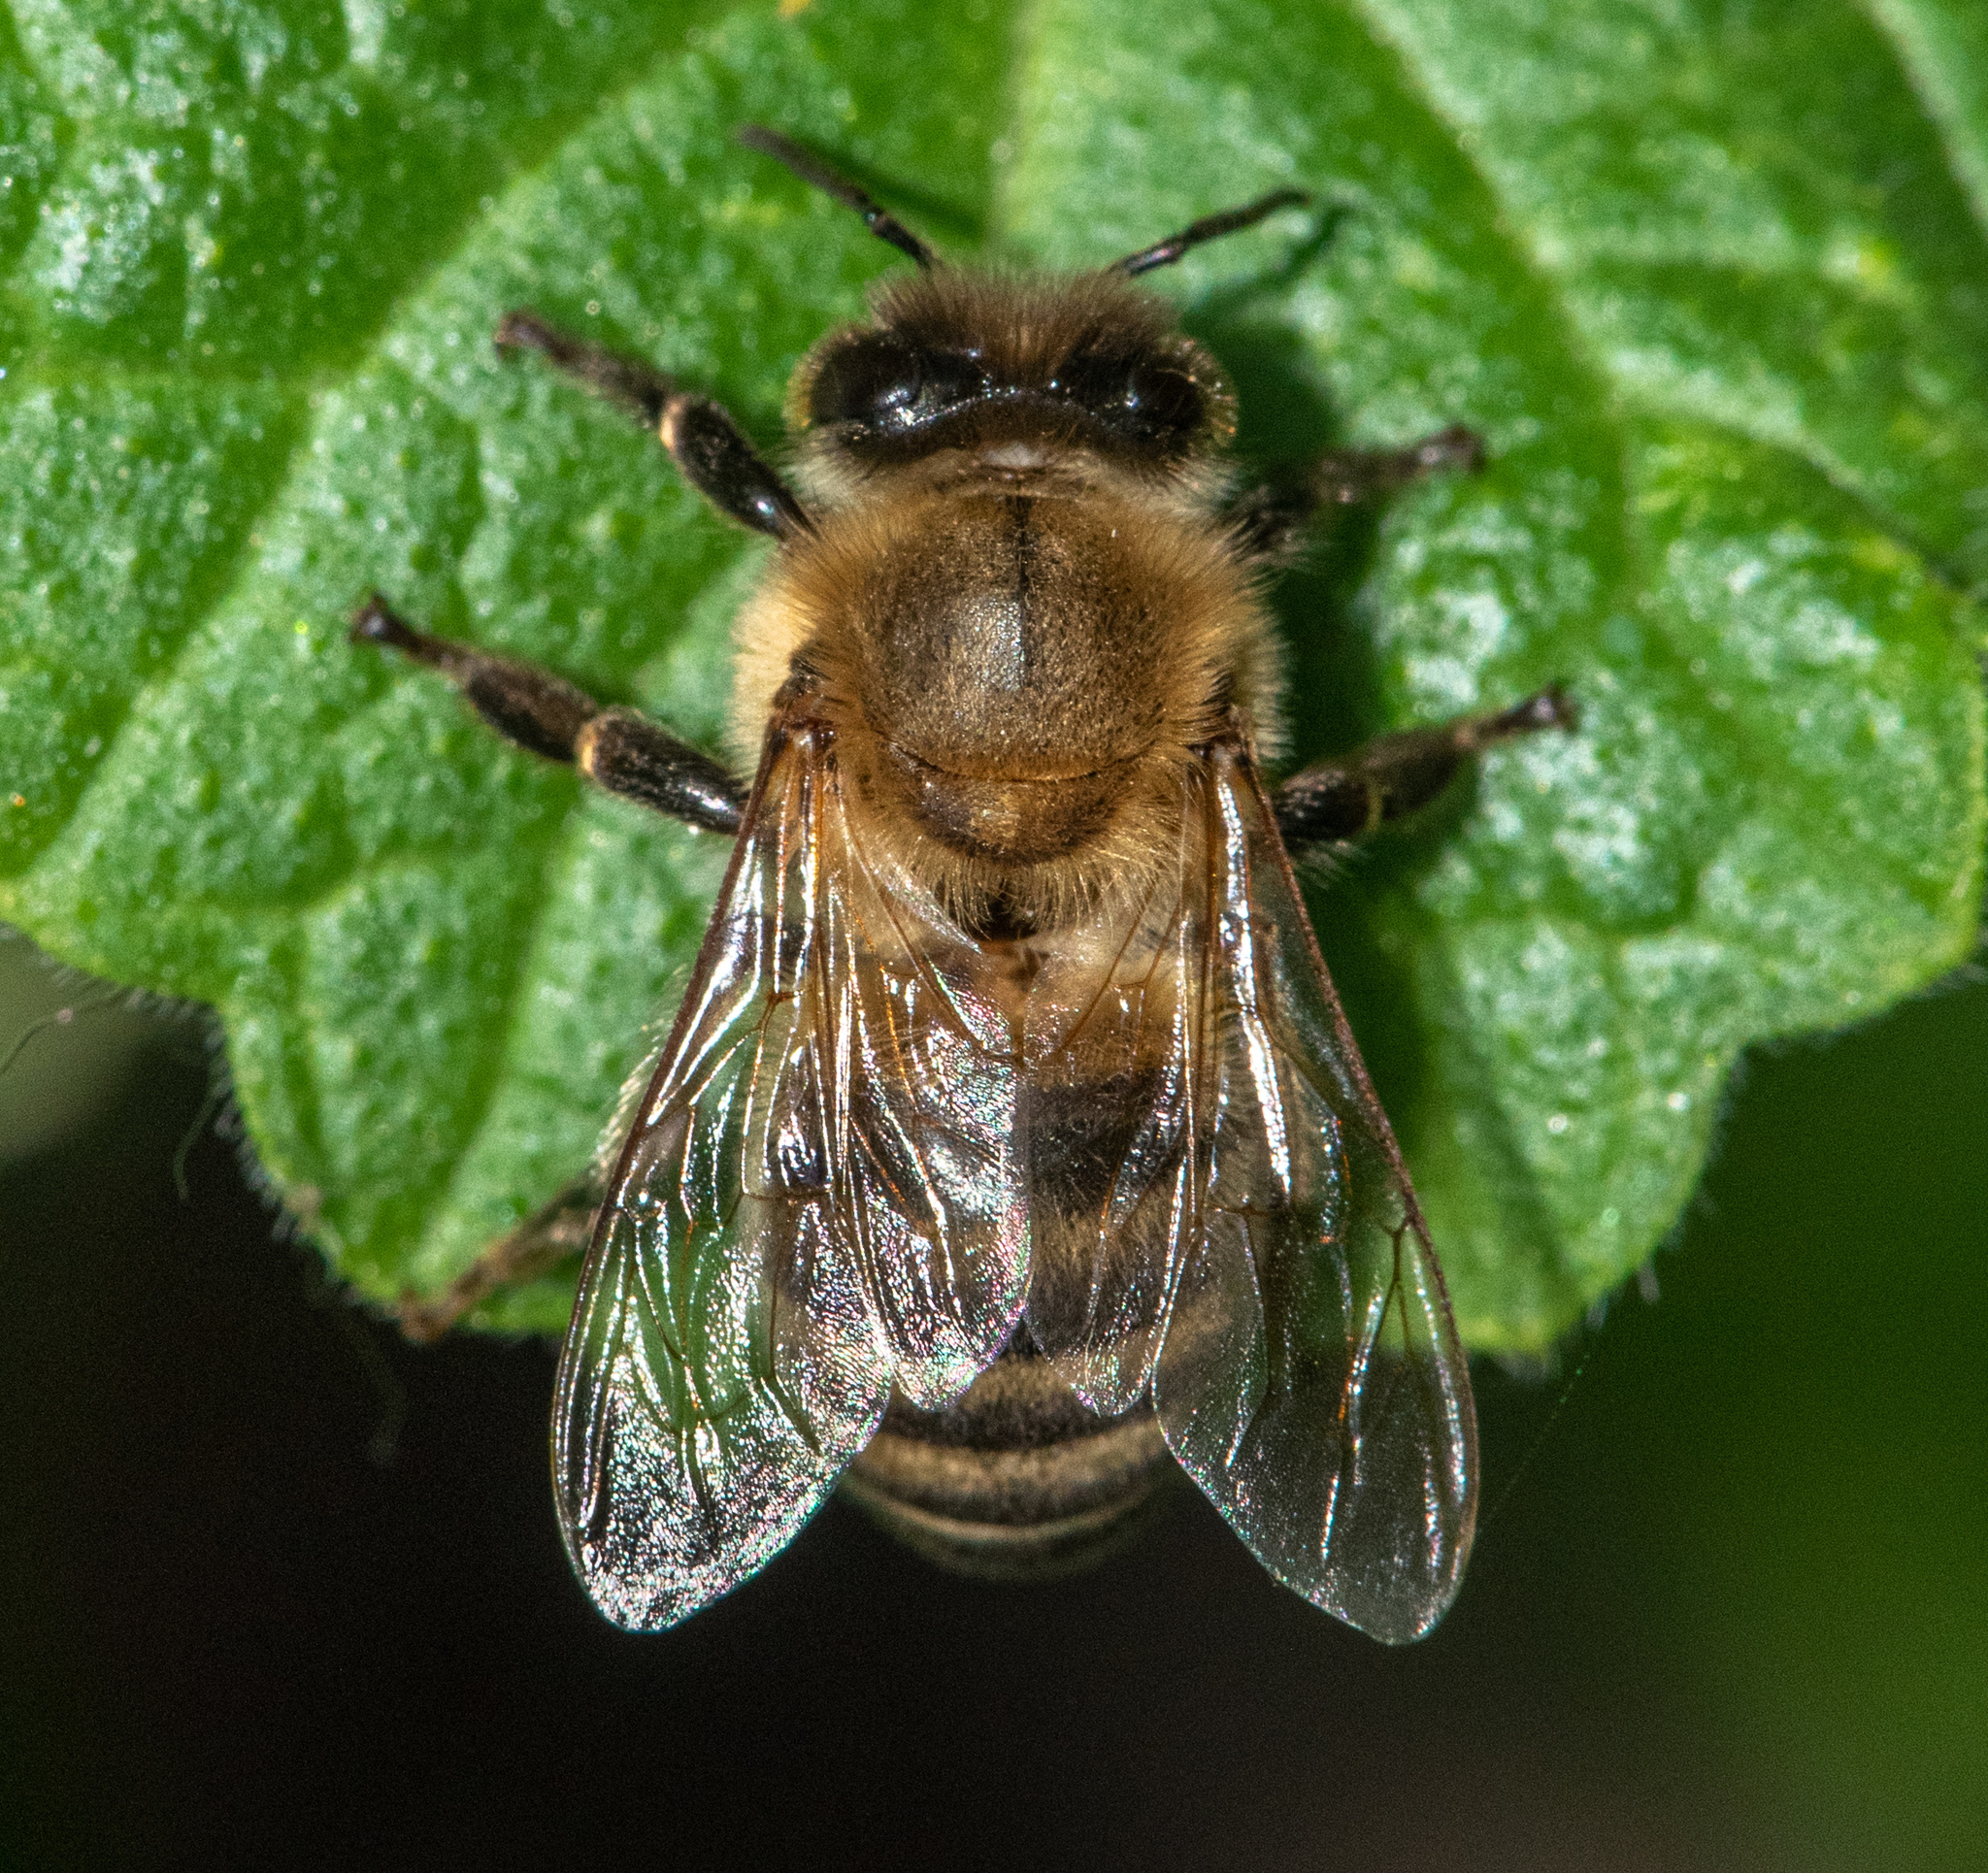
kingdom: Animalia
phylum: Arthropoda
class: Insecta
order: Hymenoptera
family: Apidae
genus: Apis
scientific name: Apis mellifera
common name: Honey bee
